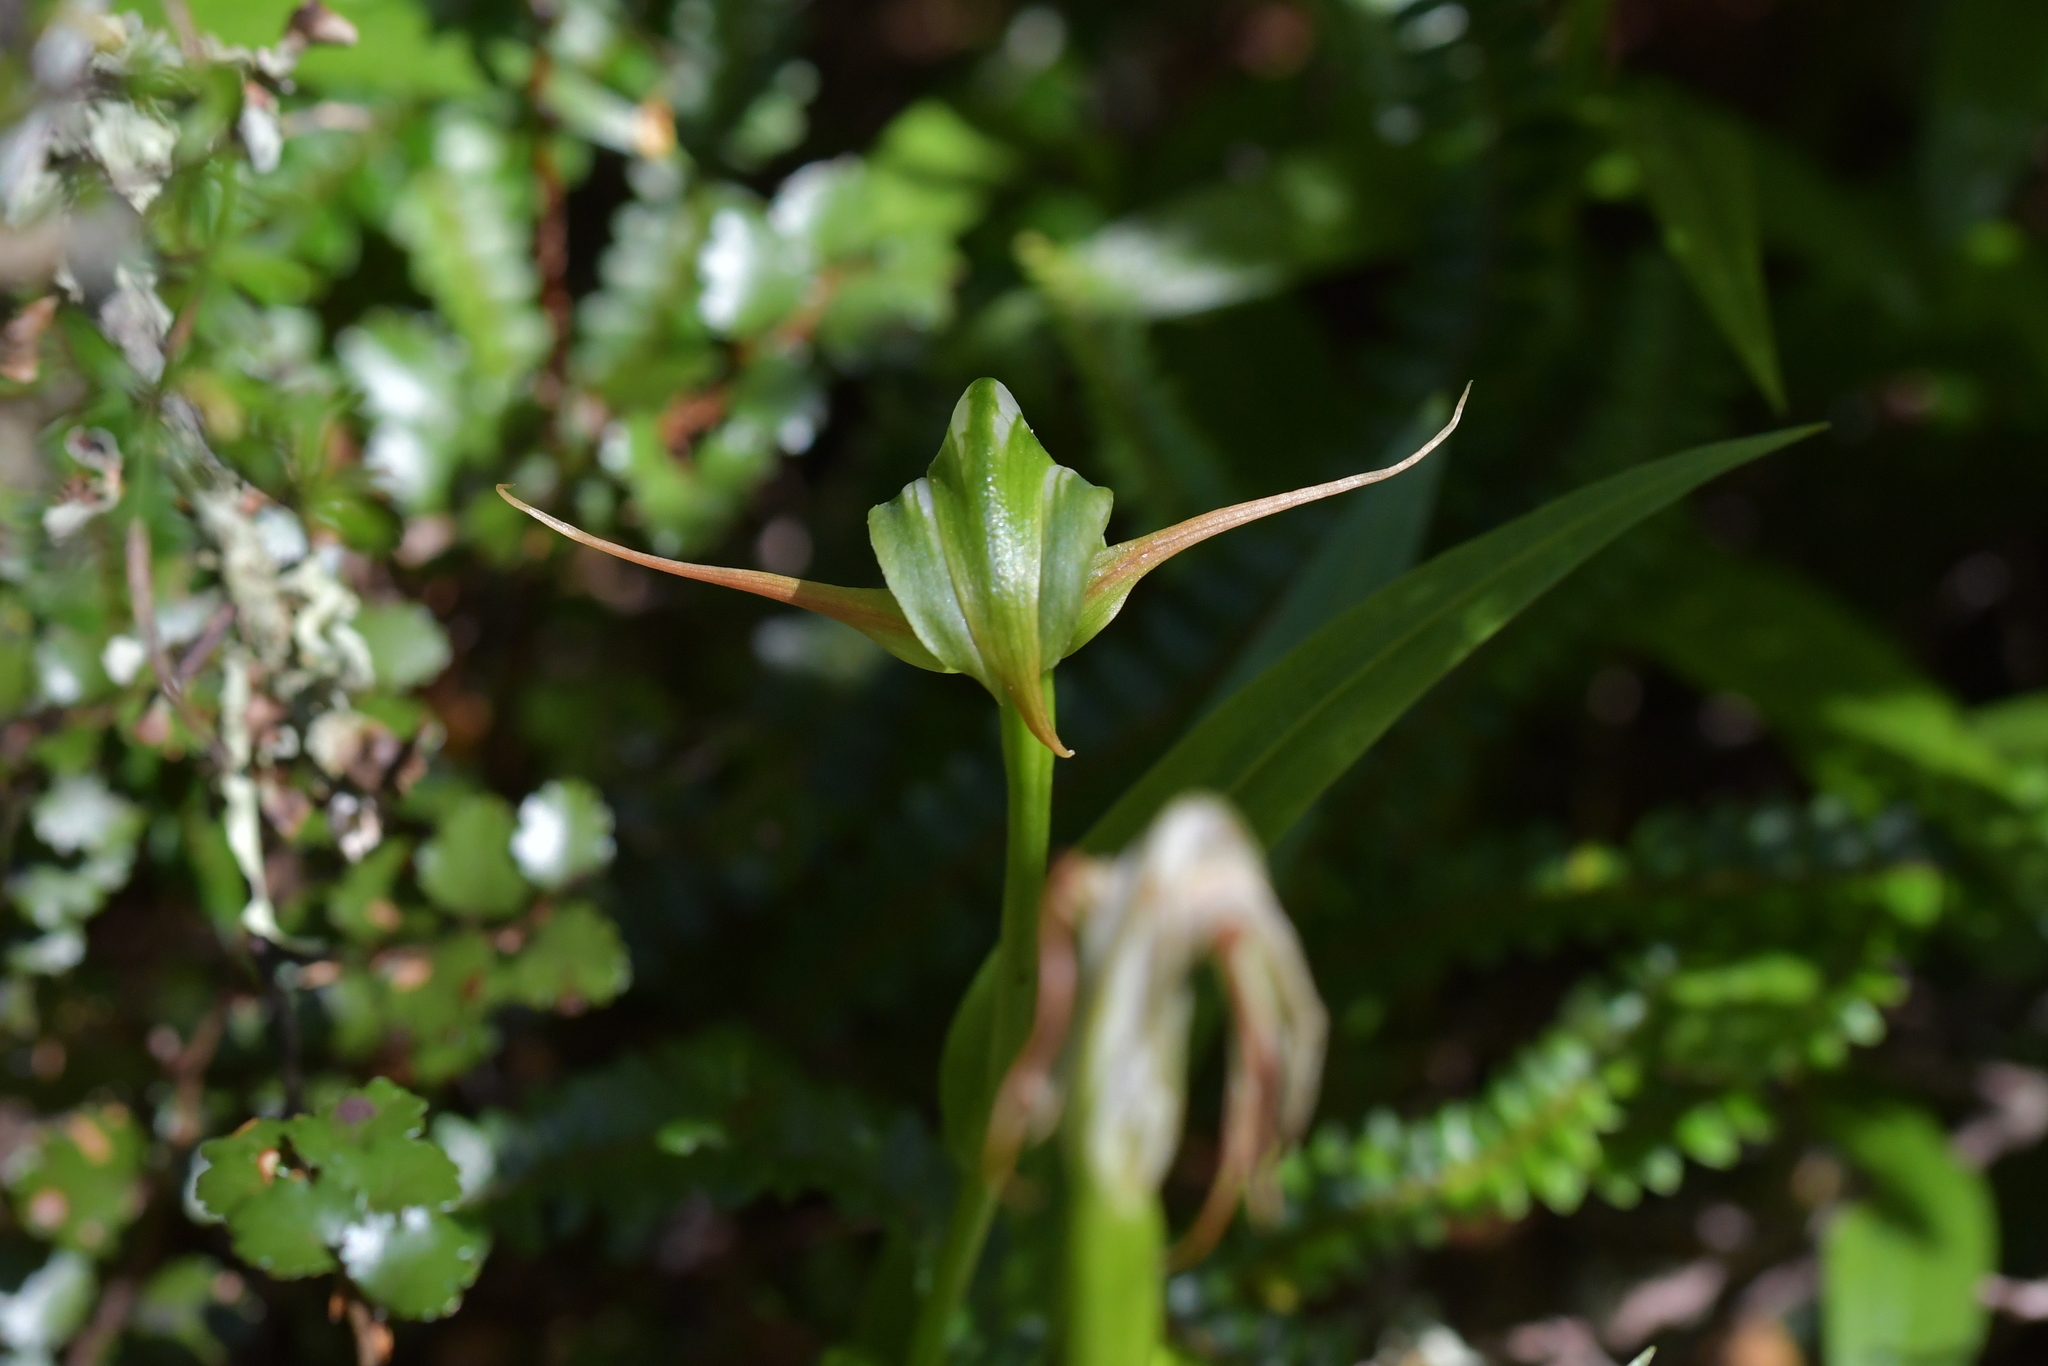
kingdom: Plantae
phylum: Tracheophyta
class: Liliopsida
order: Asparagales
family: Orchidaceae
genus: Pterostylis
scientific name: Pterostylis australis
